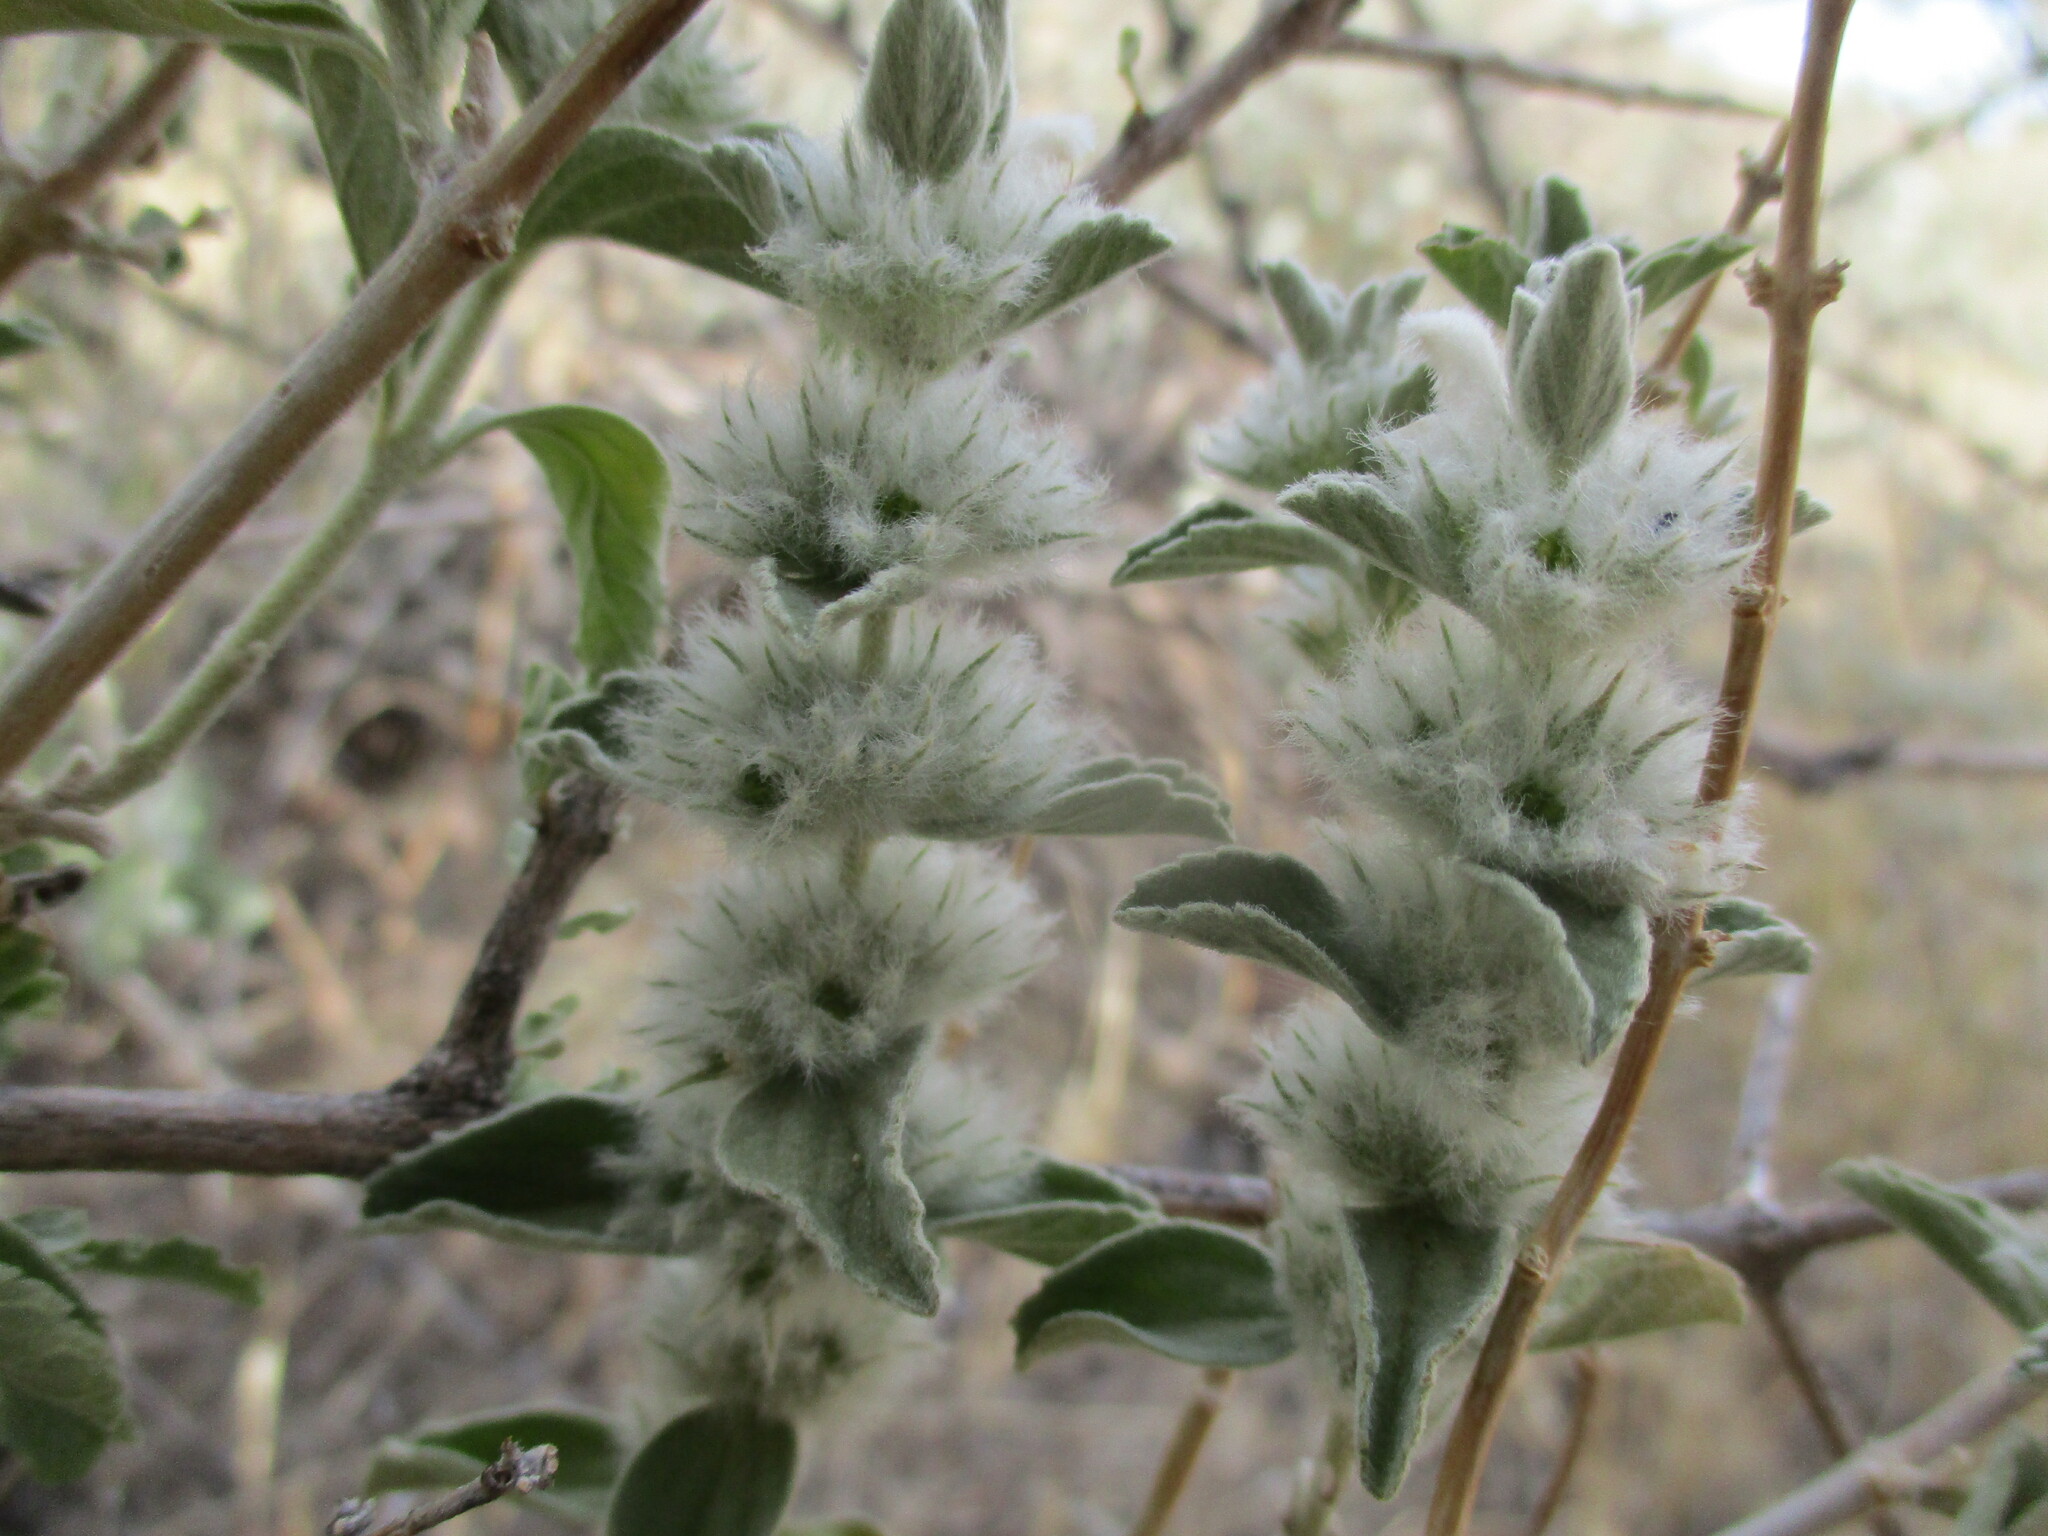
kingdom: Plantae
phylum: Tracheophyta
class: Magnoliopsida
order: Lamiales
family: Lamiaceae
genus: Leucas
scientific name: Leucas pechuelii
